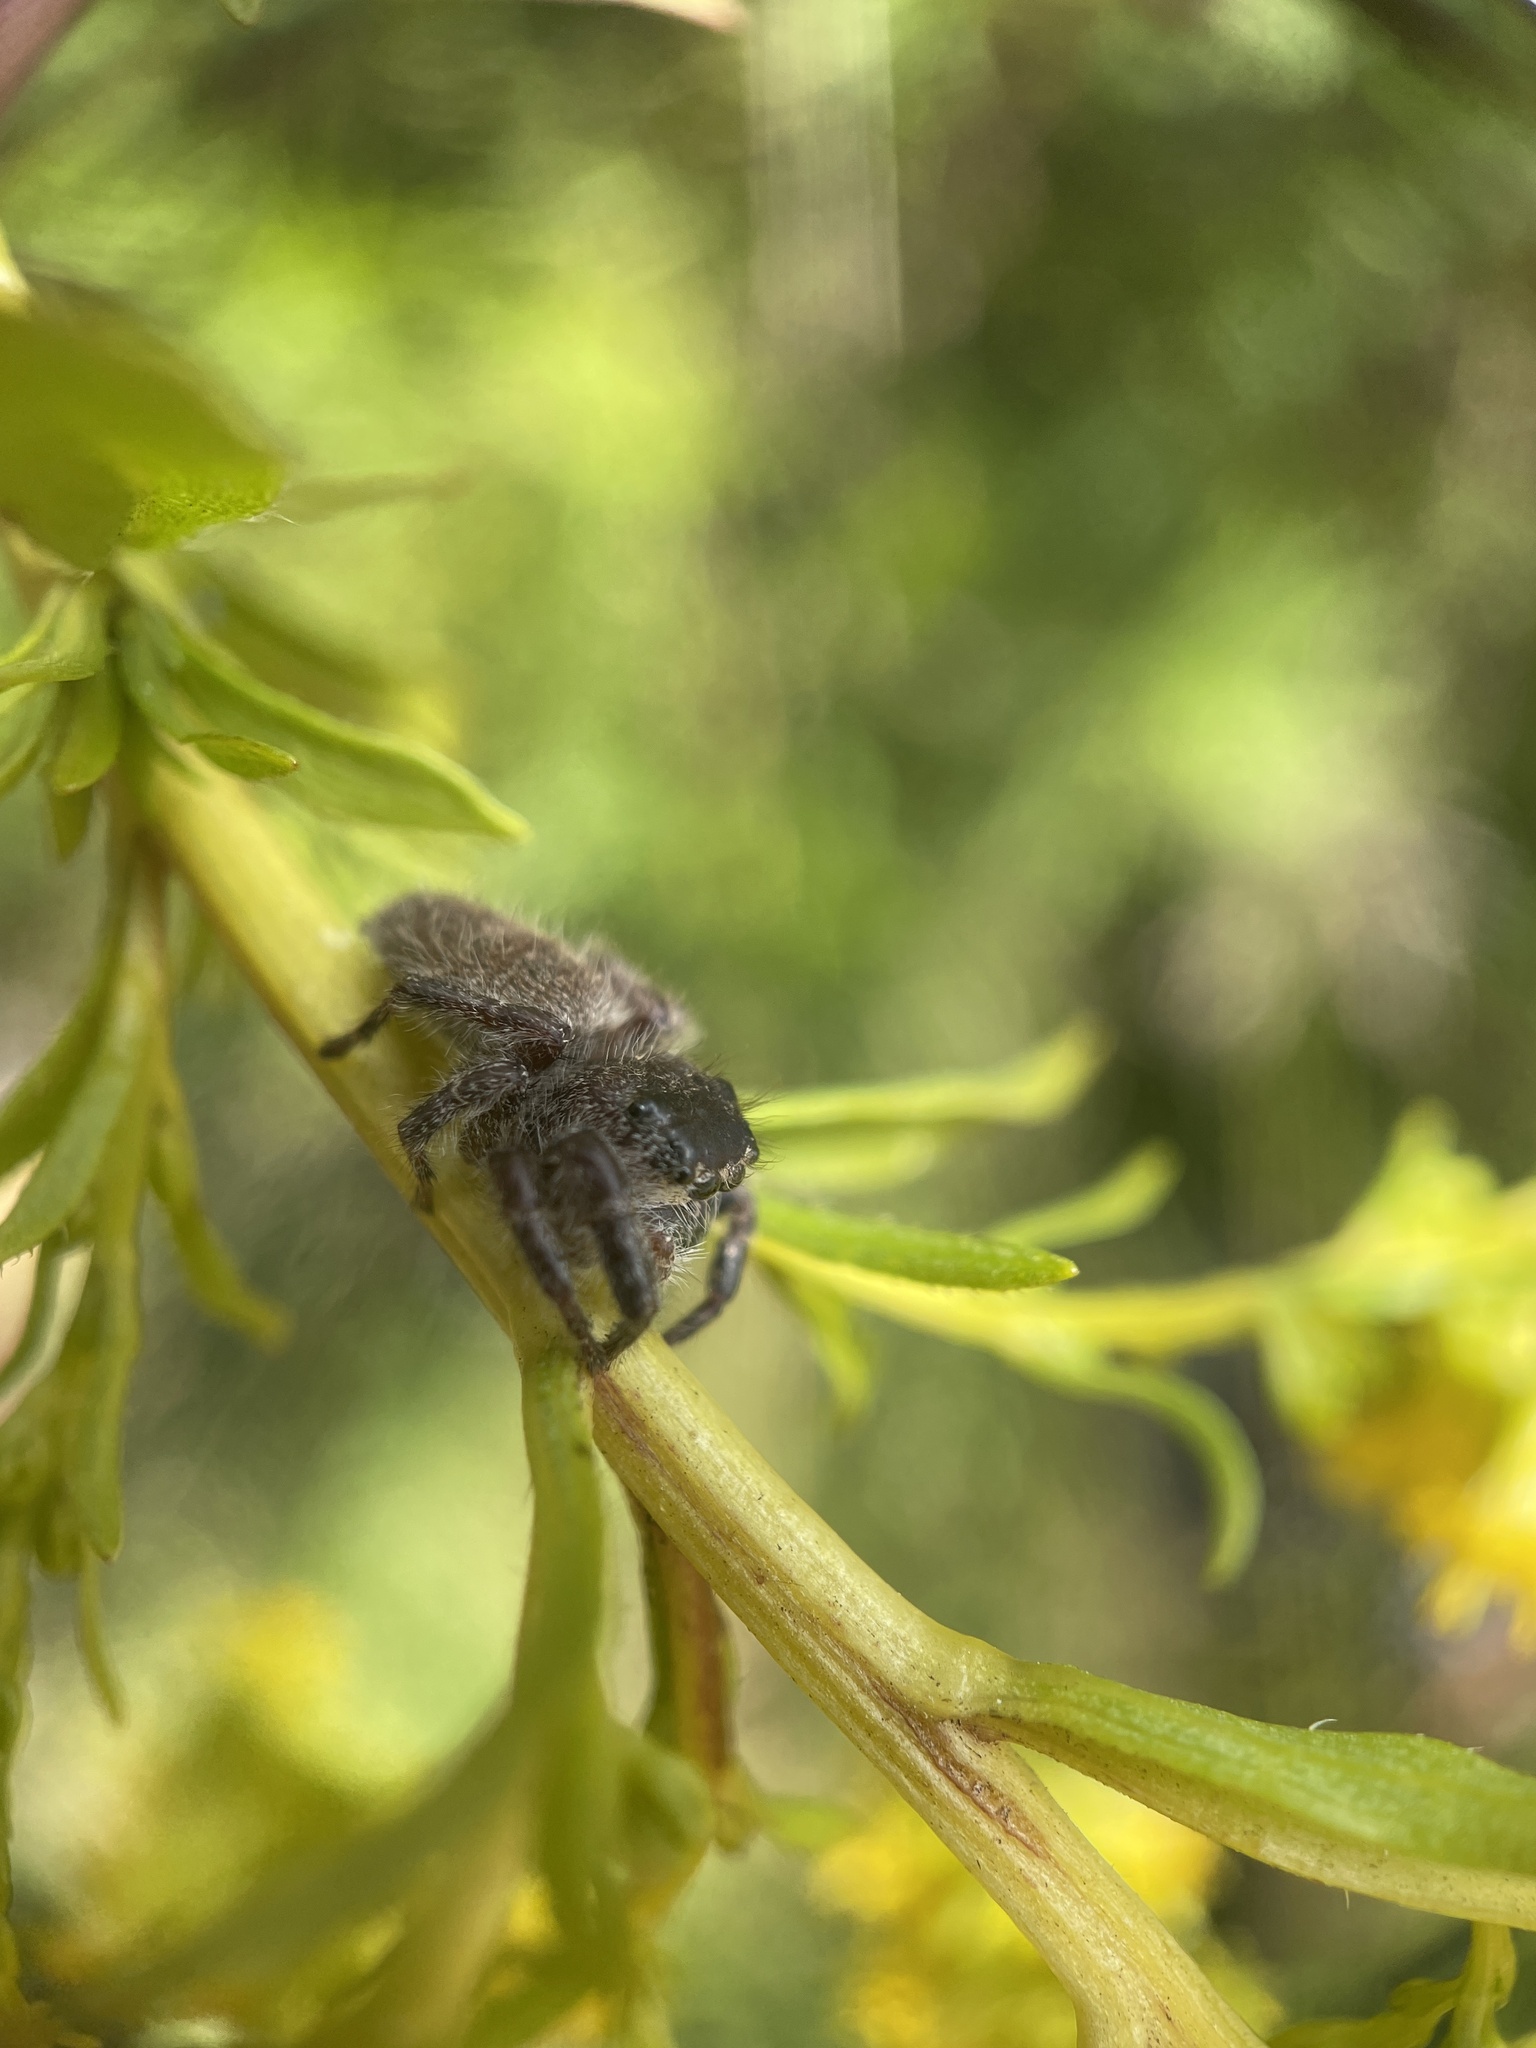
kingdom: Animalia
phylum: Arthropoda
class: Arachnida
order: Araneae
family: Salticidae
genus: Phidippus
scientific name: Phidippus princeps
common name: Grayish jumping spider
